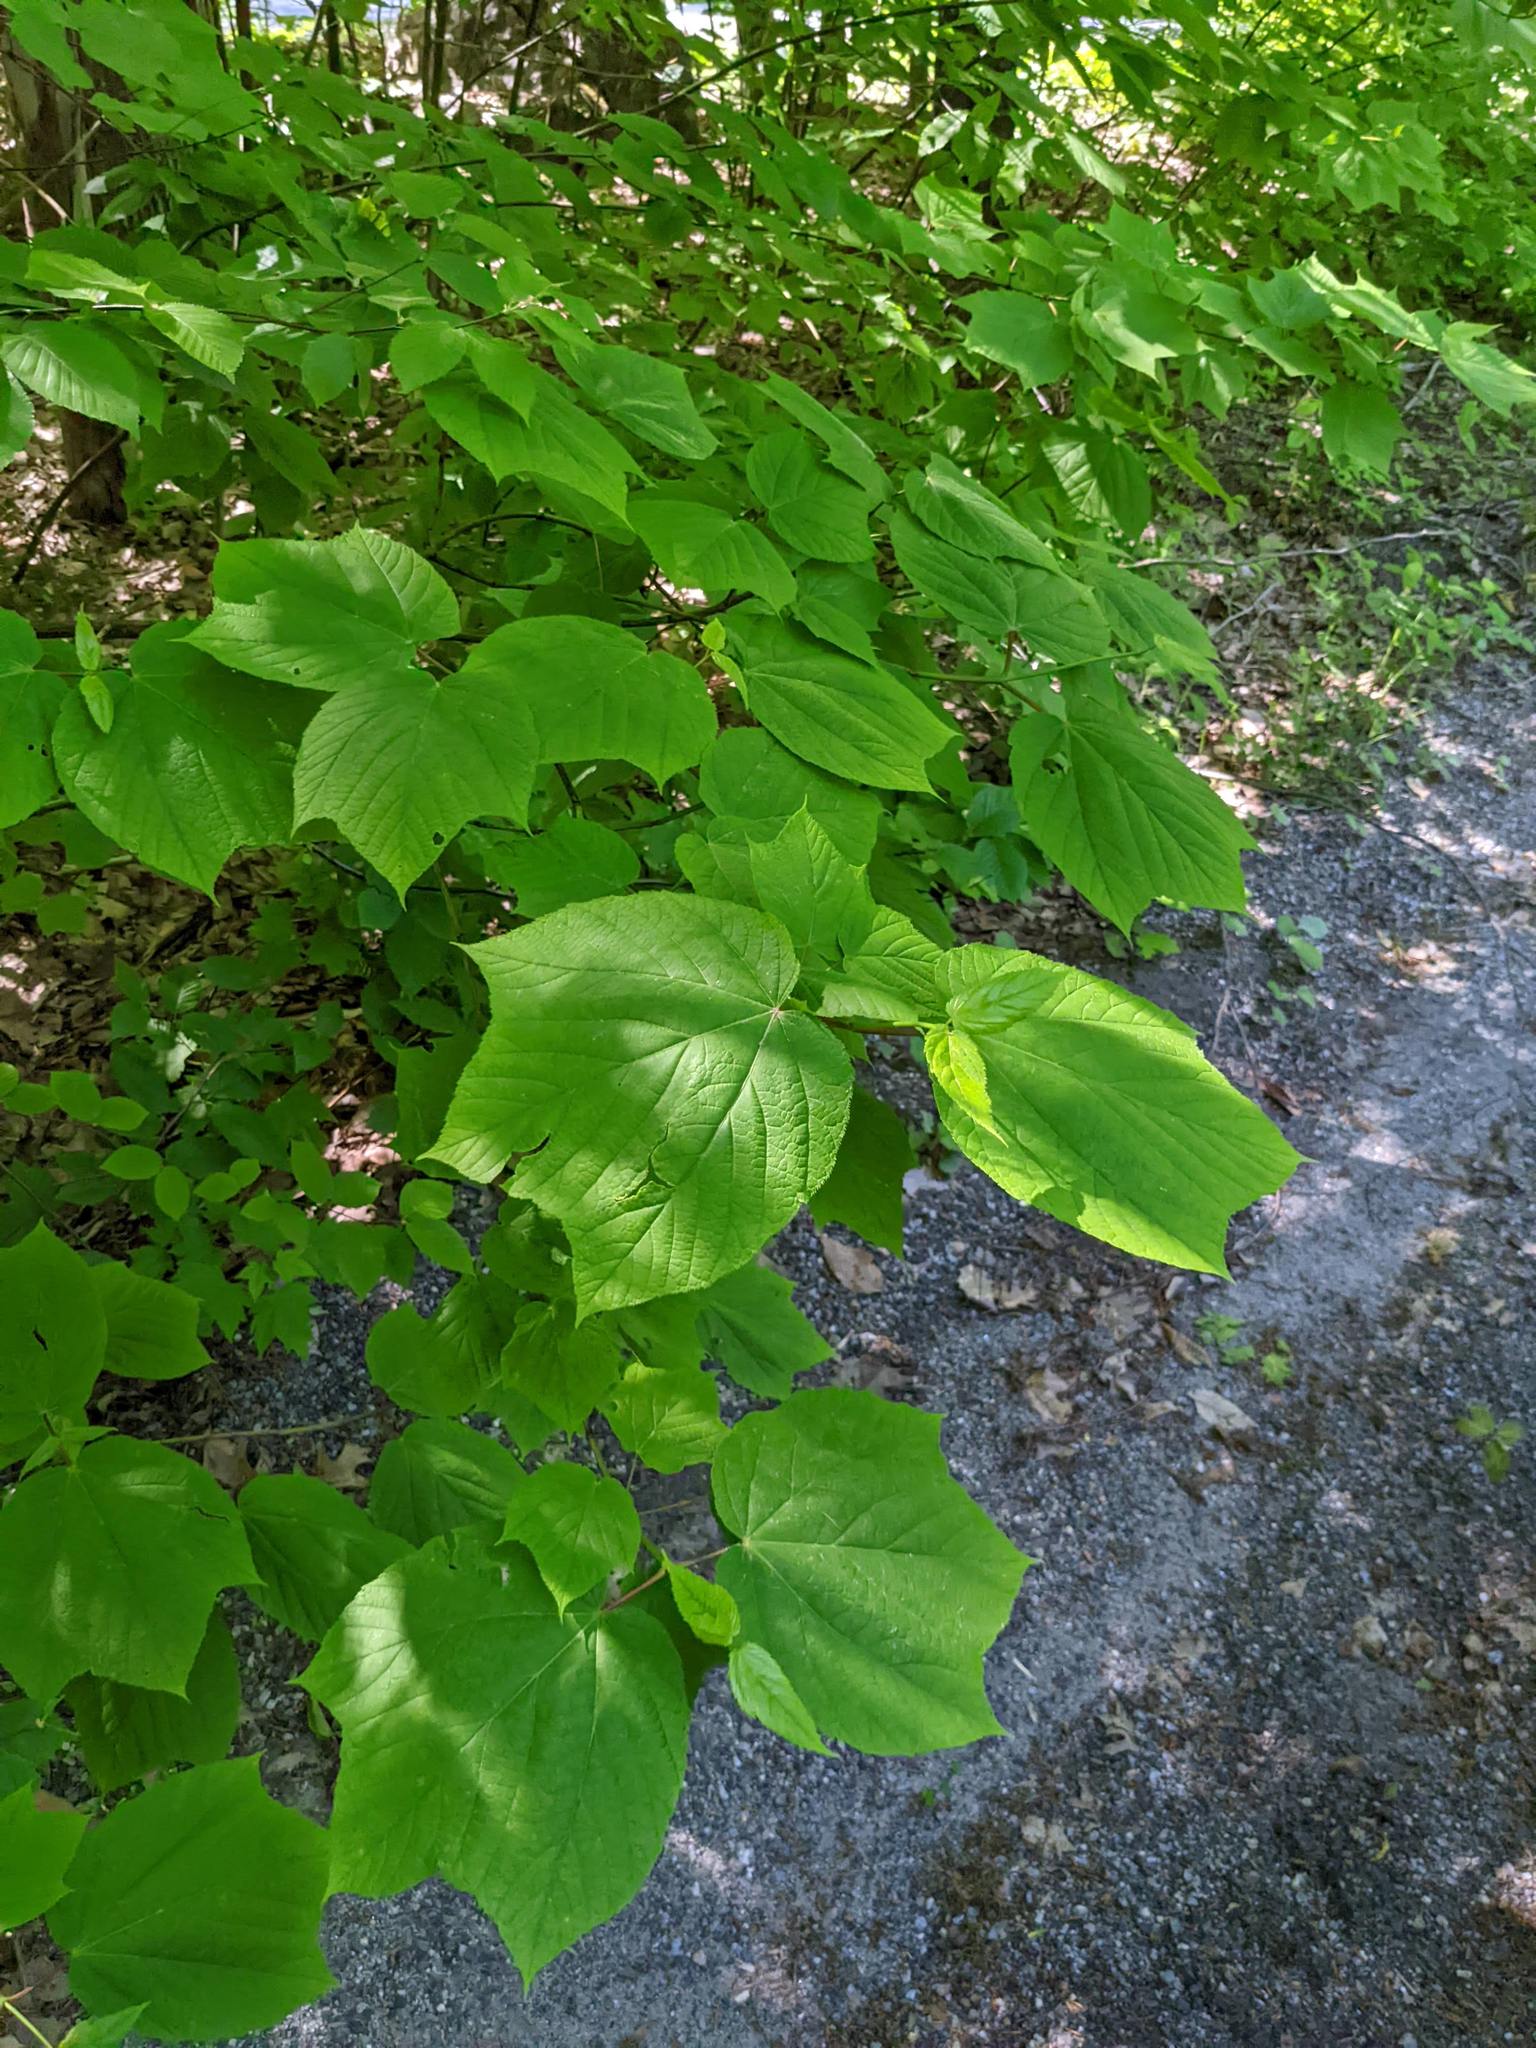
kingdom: Plantae
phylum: Tracheophyta
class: Magnoliopsida
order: Sapindales
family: Sapindaceae
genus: Acer
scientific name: Acer pensylvanicum
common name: Moosewood
